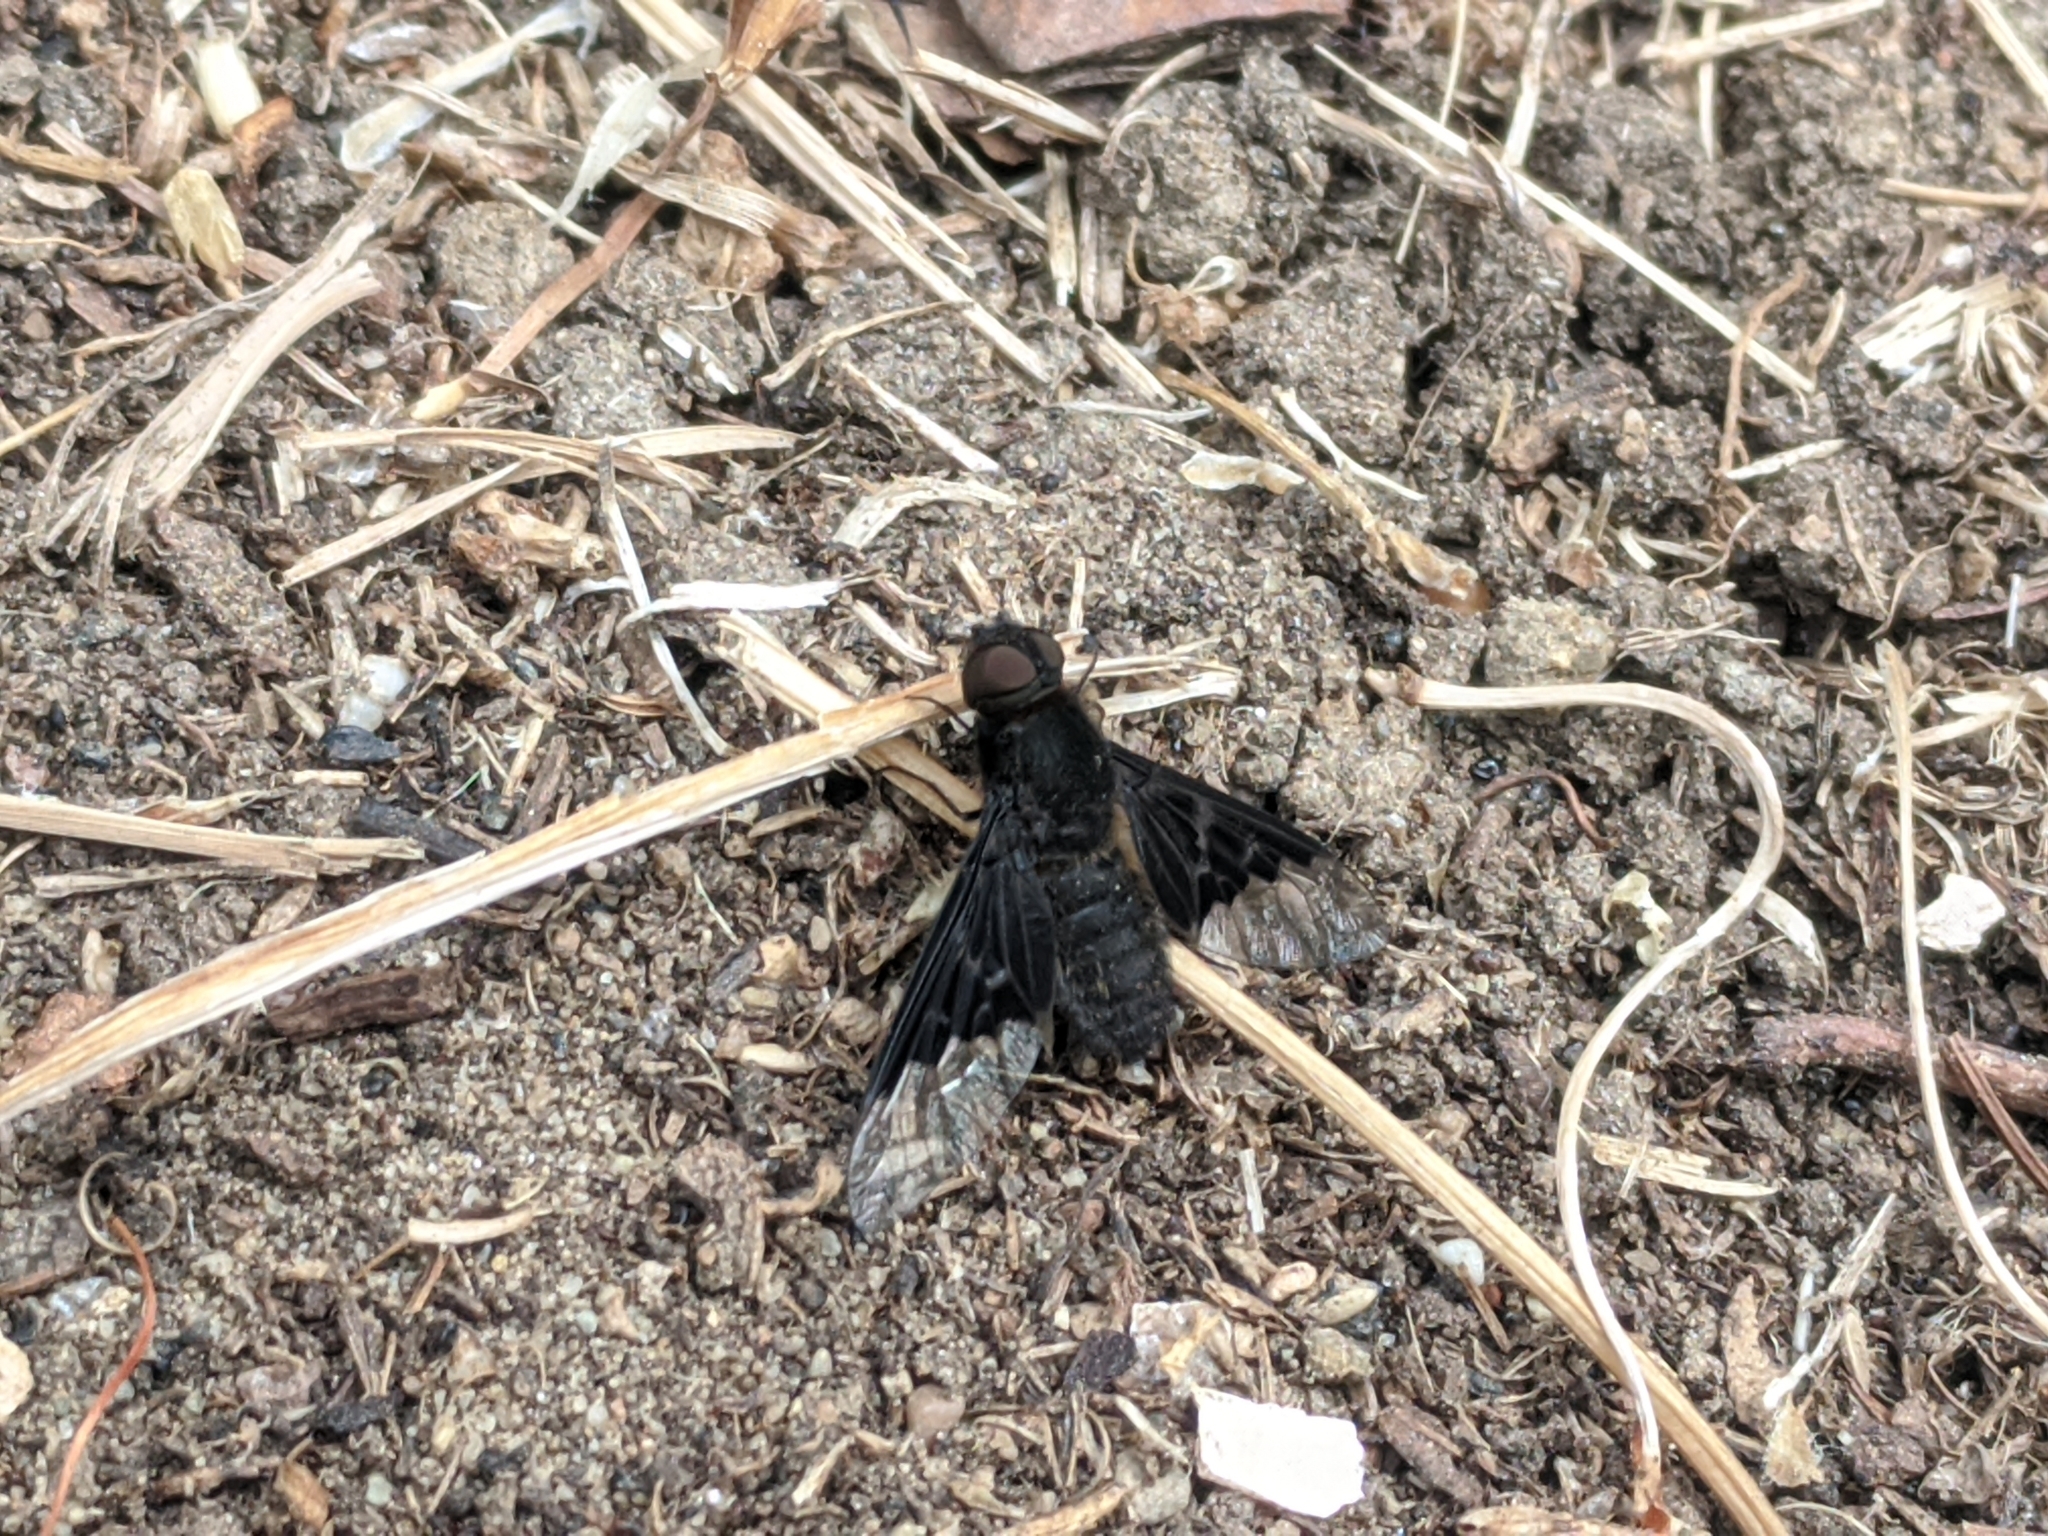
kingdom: Animalia
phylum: Arthropoda
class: Insecta
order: Diptera
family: Bombyliidae
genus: Hemipenthes
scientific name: Hemipenthes morio
